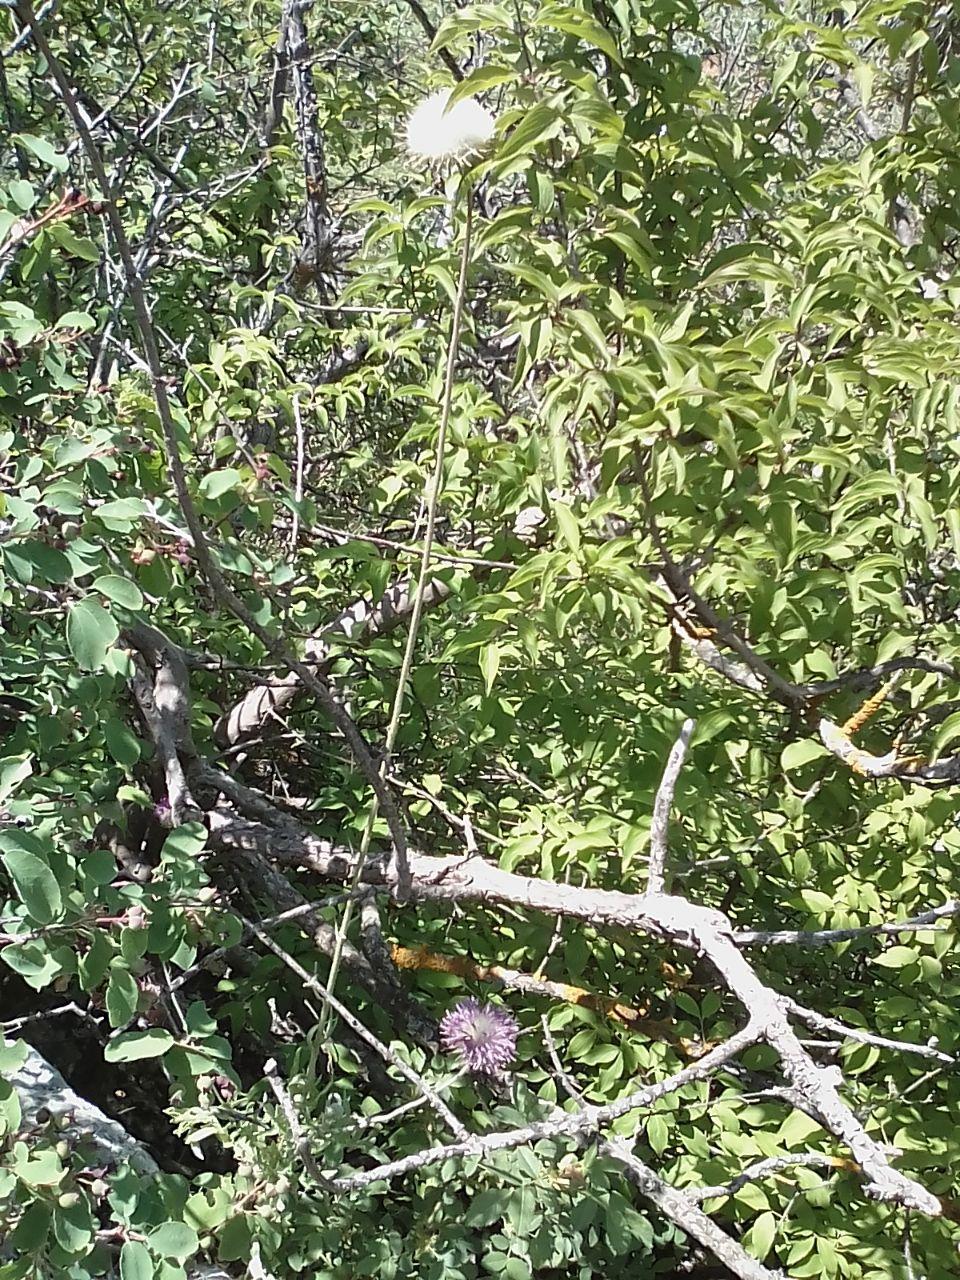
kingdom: Plantae
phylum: Tracheophyta
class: Magnoliopsida
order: Asterales
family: Asteraceae
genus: Jurinea
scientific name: Jurinea roegneri
